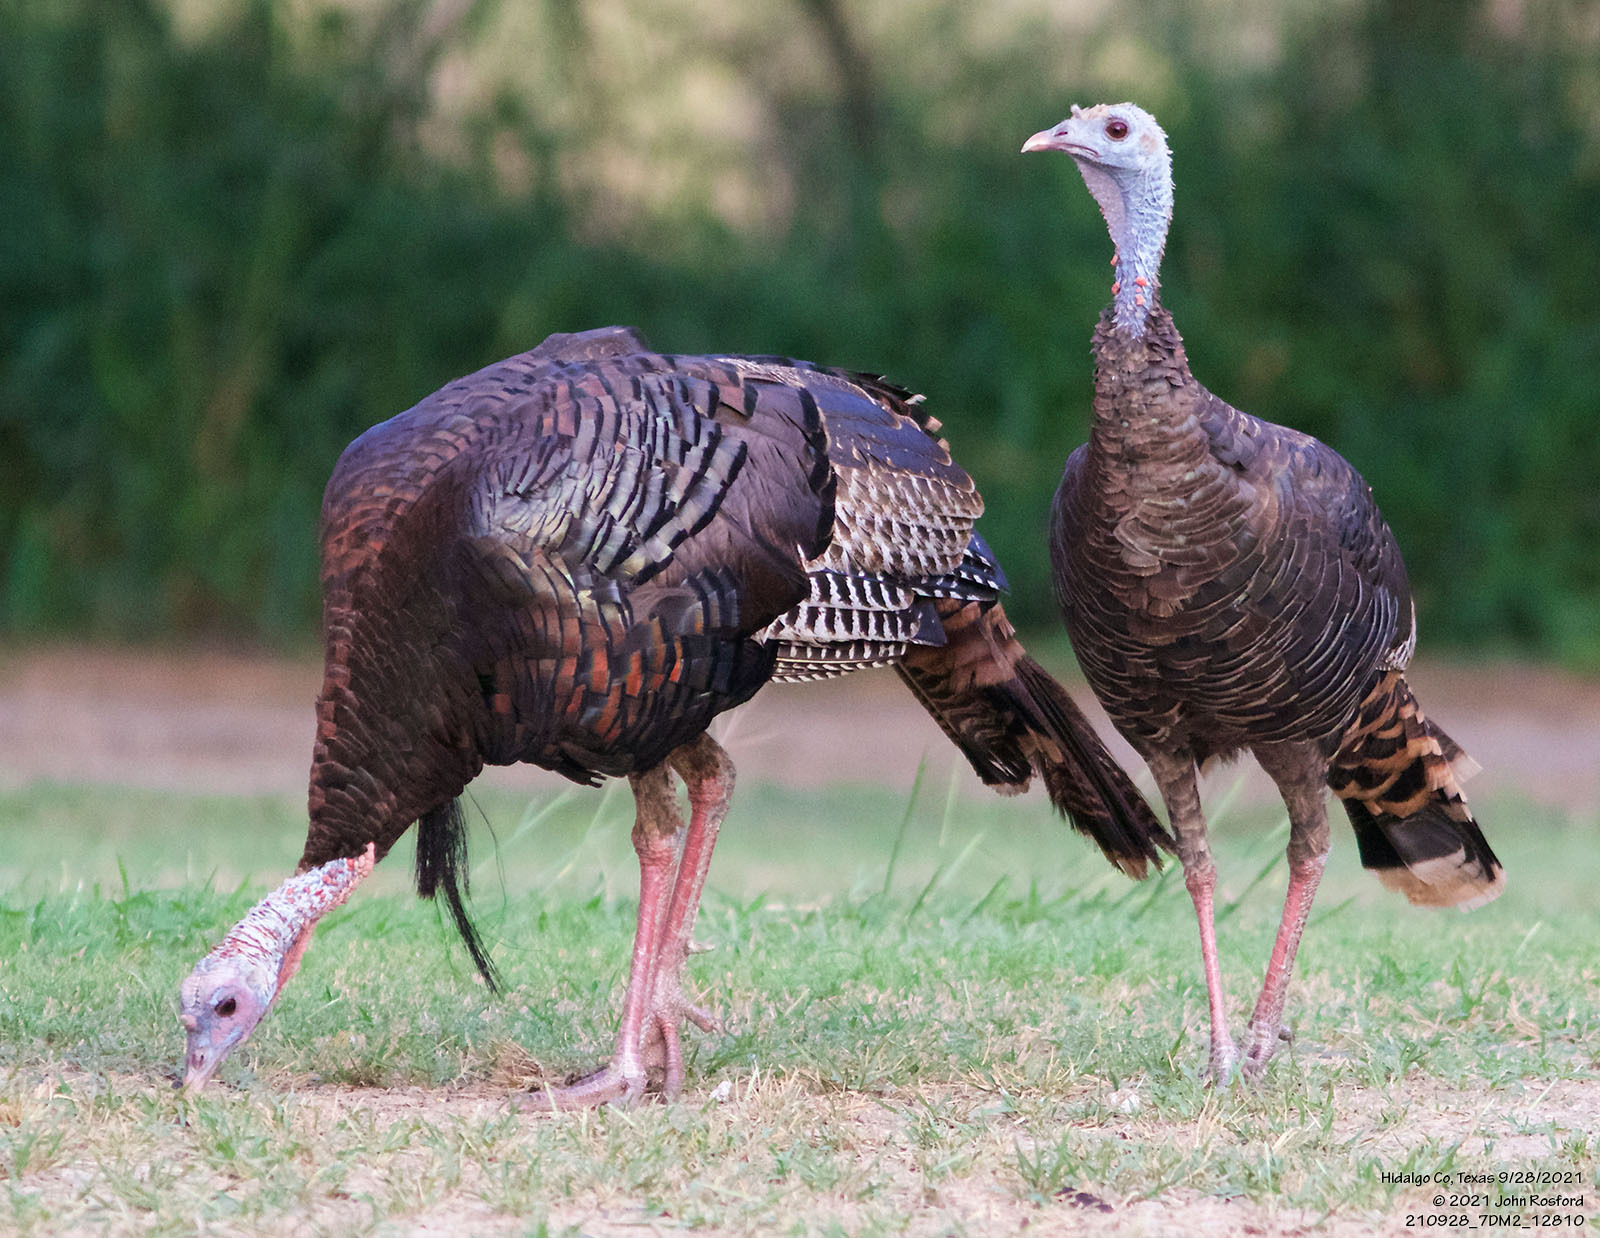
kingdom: Animalia
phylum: Chordata
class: Aves
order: Galliformes
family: Phasianidae
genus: Meleagris
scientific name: Meleagris gallopavo
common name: Wild turkey
